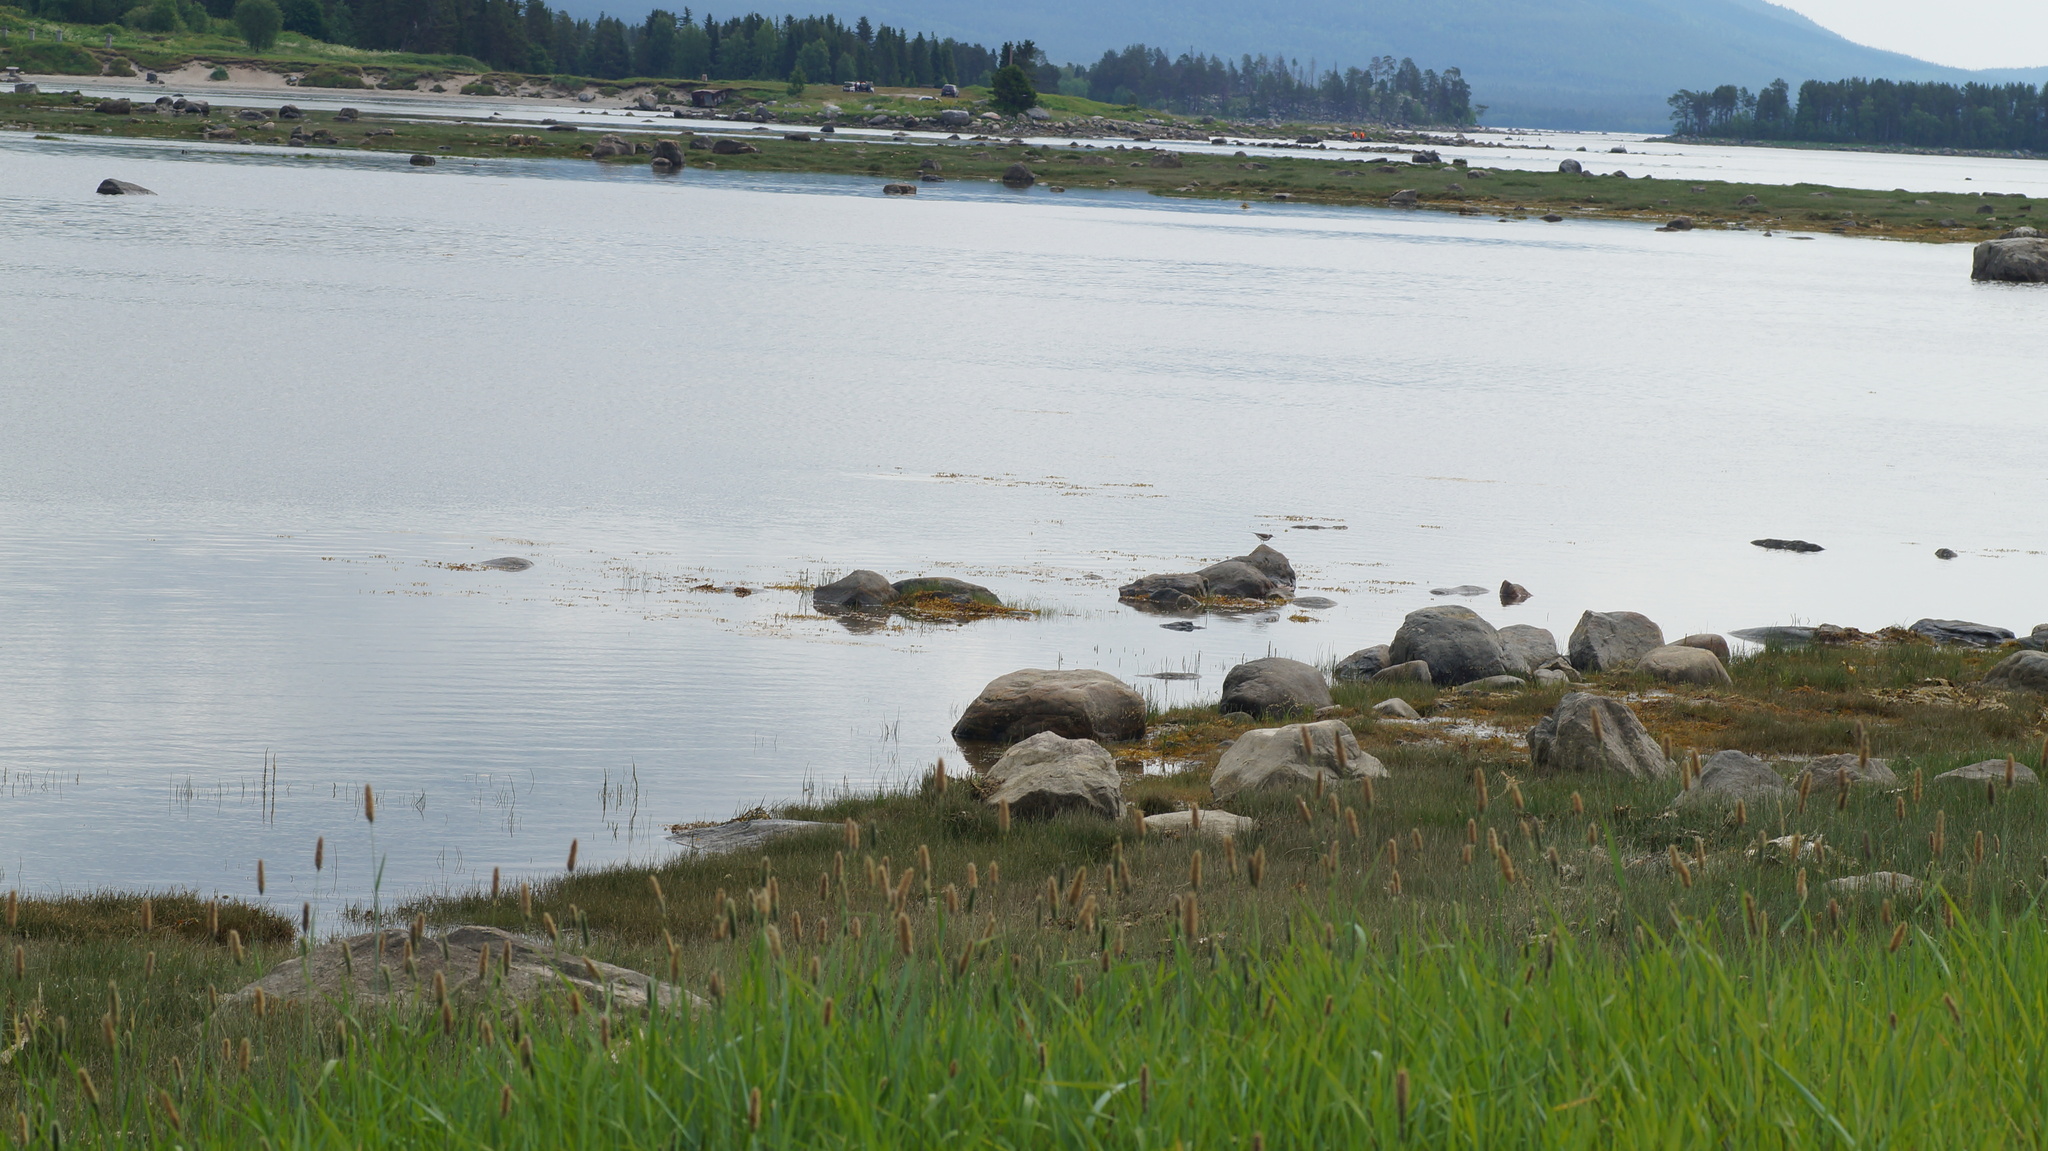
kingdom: Animalia
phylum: Chordata
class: Aves
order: Charadriiformes
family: Scolopacidae
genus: Actitis
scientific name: Actitis hypoleucos
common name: Common sandpiper
